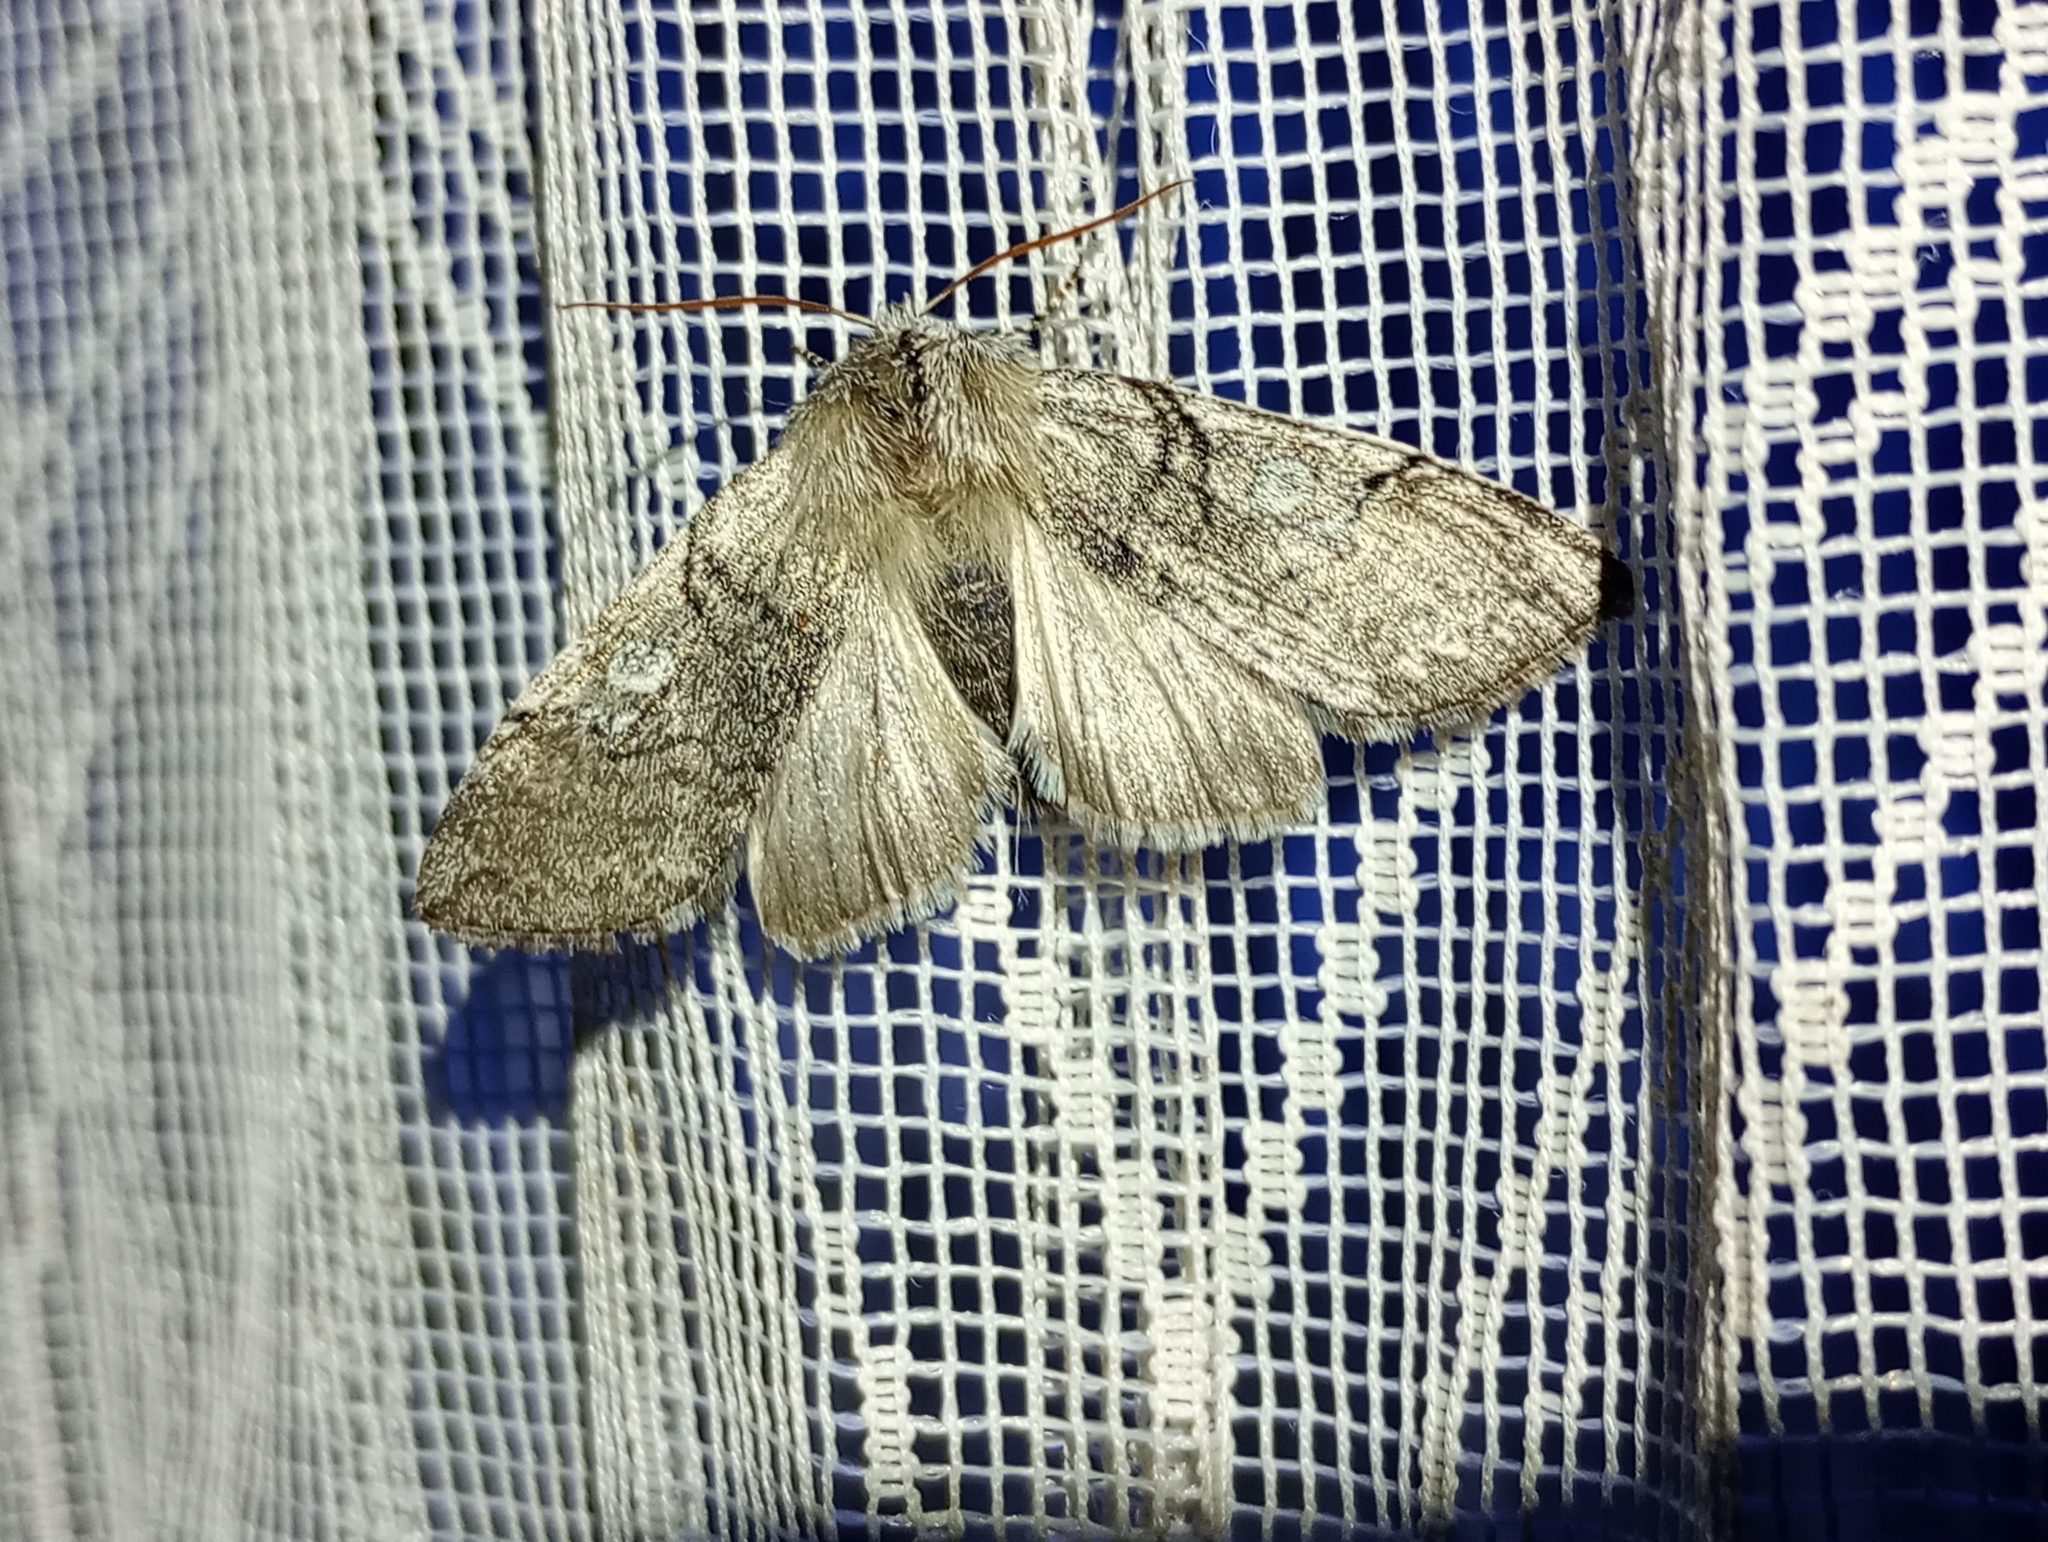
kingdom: Animalia
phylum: Arthropoda
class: Insecta
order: Lepidoptera
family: Drepanidae
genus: Achlya
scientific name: Achlya flavicornis
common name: Yellow horned
